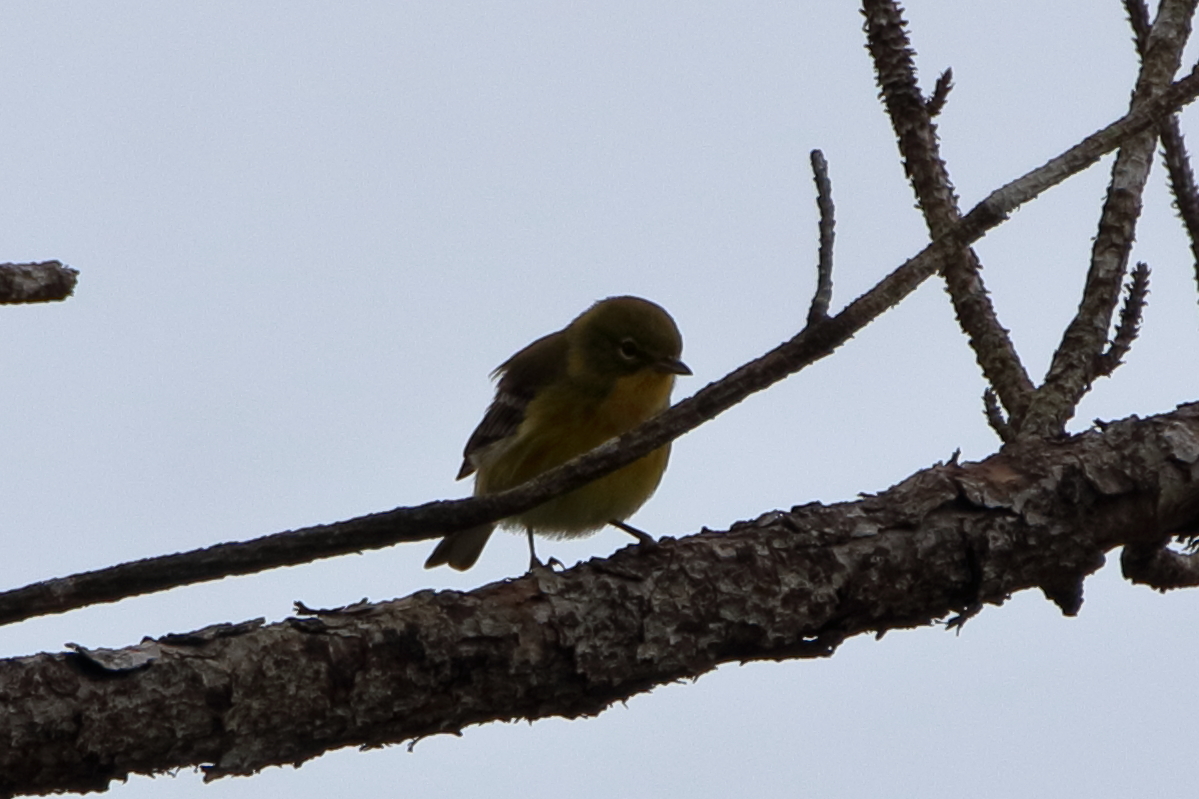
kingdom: Animalia
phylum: Chordata
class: Aves
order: Passeriformes
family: Parulidae
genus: Setophaga
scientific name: Setophaga pinus
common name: Pine warbler
